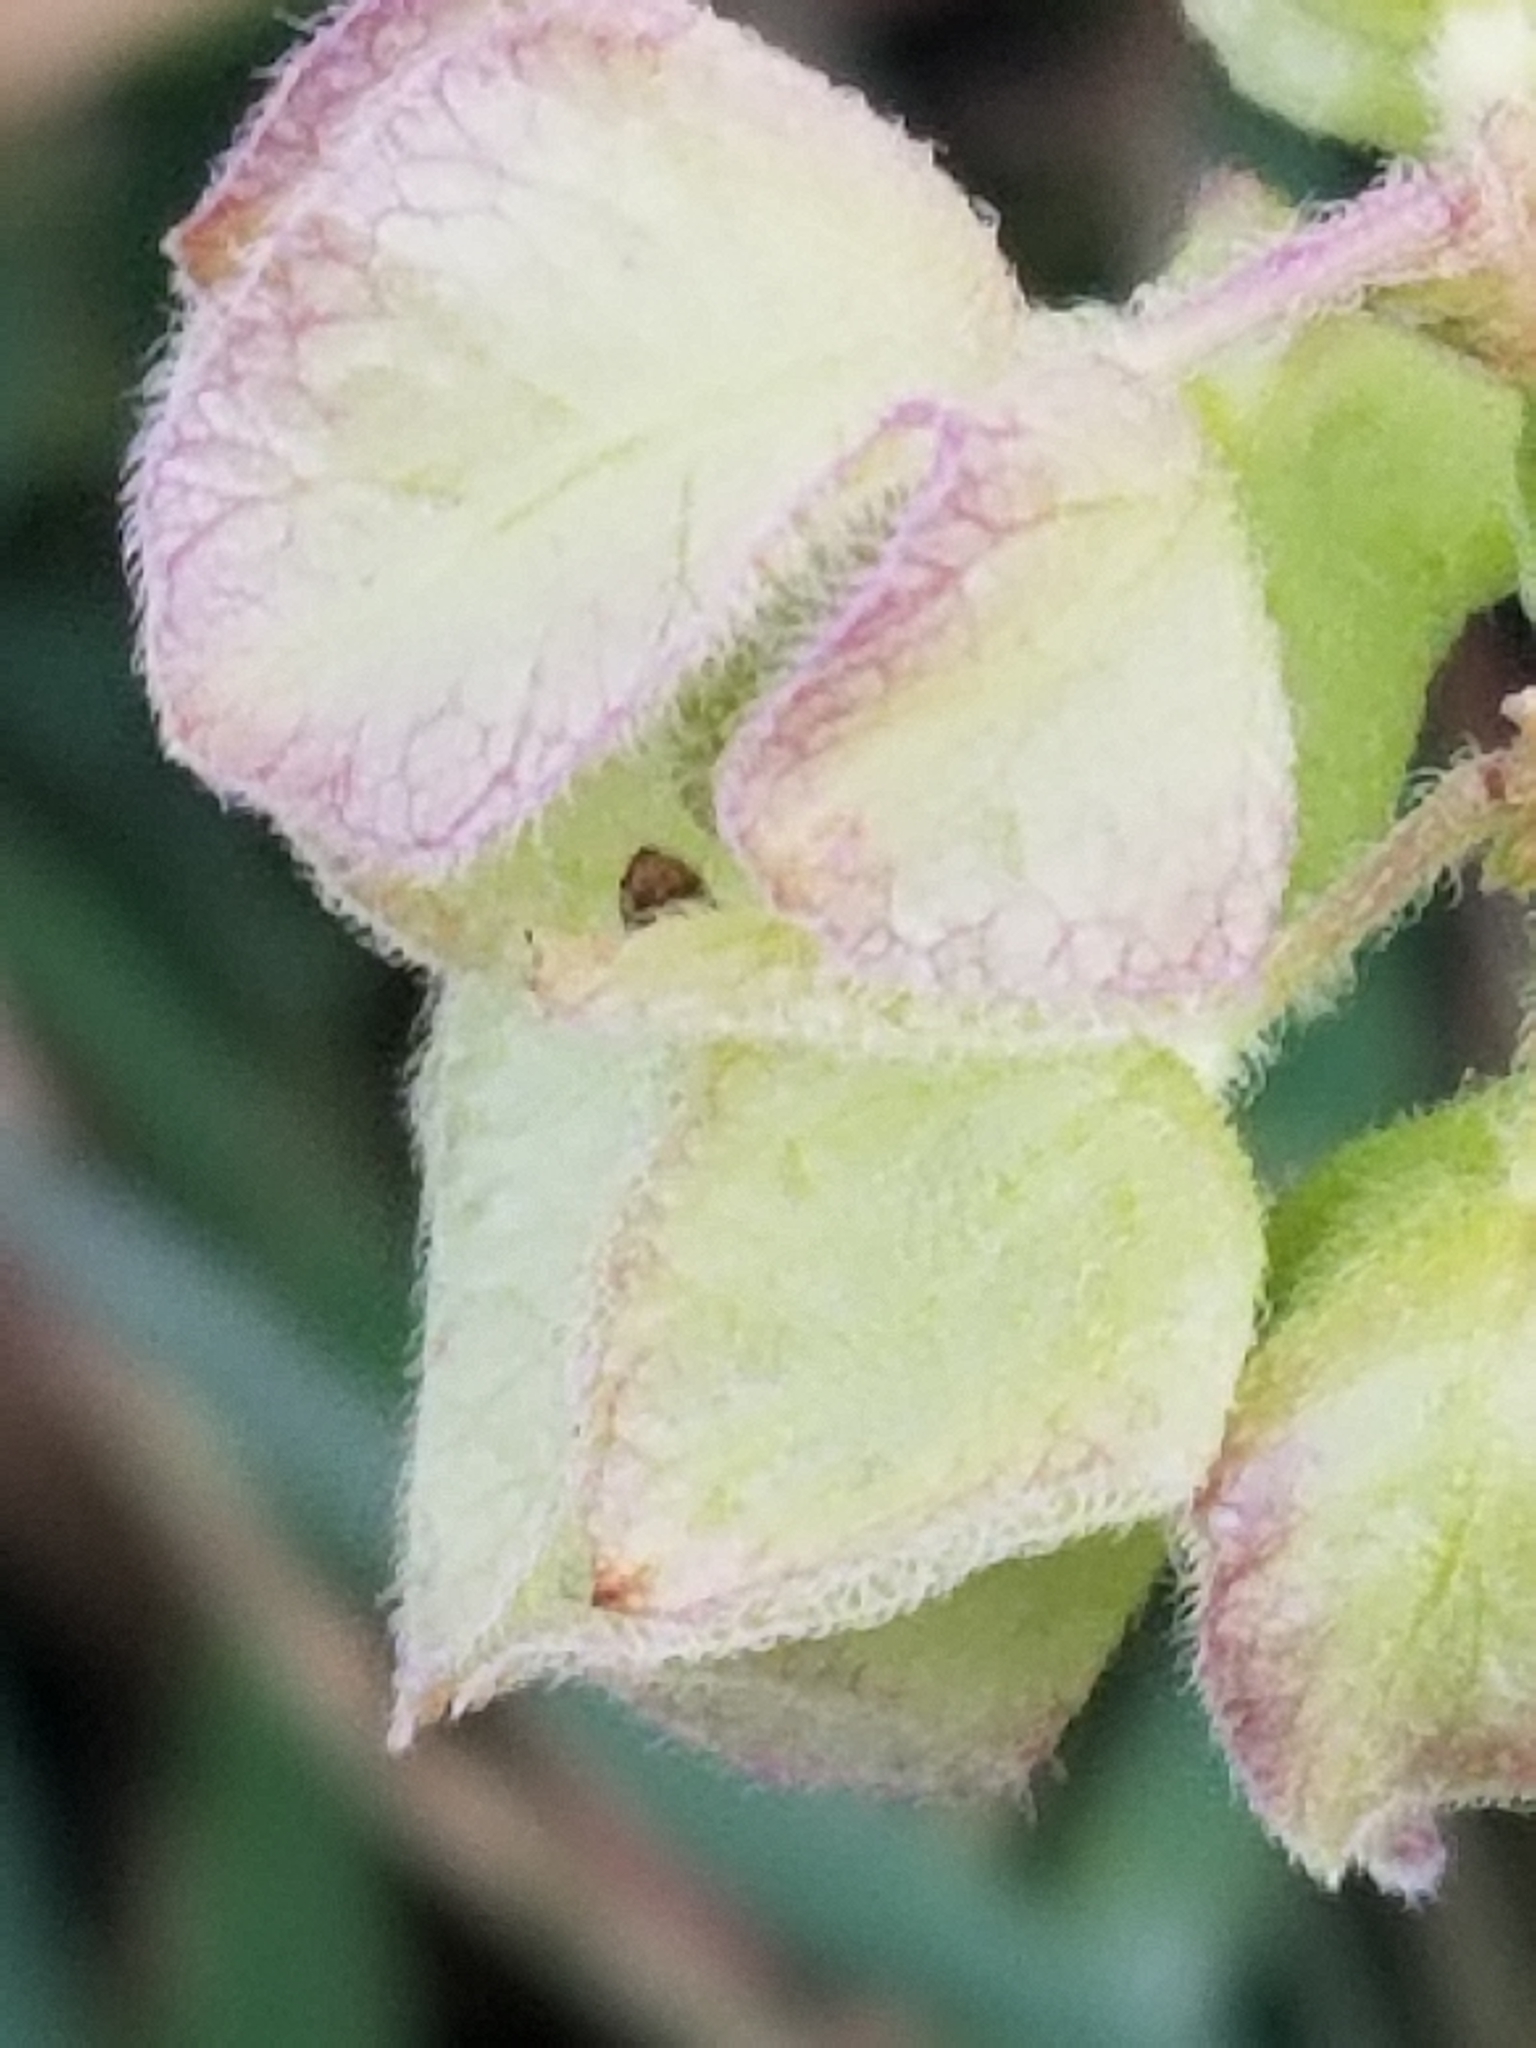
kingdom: Plantae
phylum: Tracheophyta
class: Magnoliopsida
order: Caryophyllales
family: Nyctaginaceae
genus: Mirabilis
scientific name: Mirabilis nyctaginea
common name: Umbrella wort
